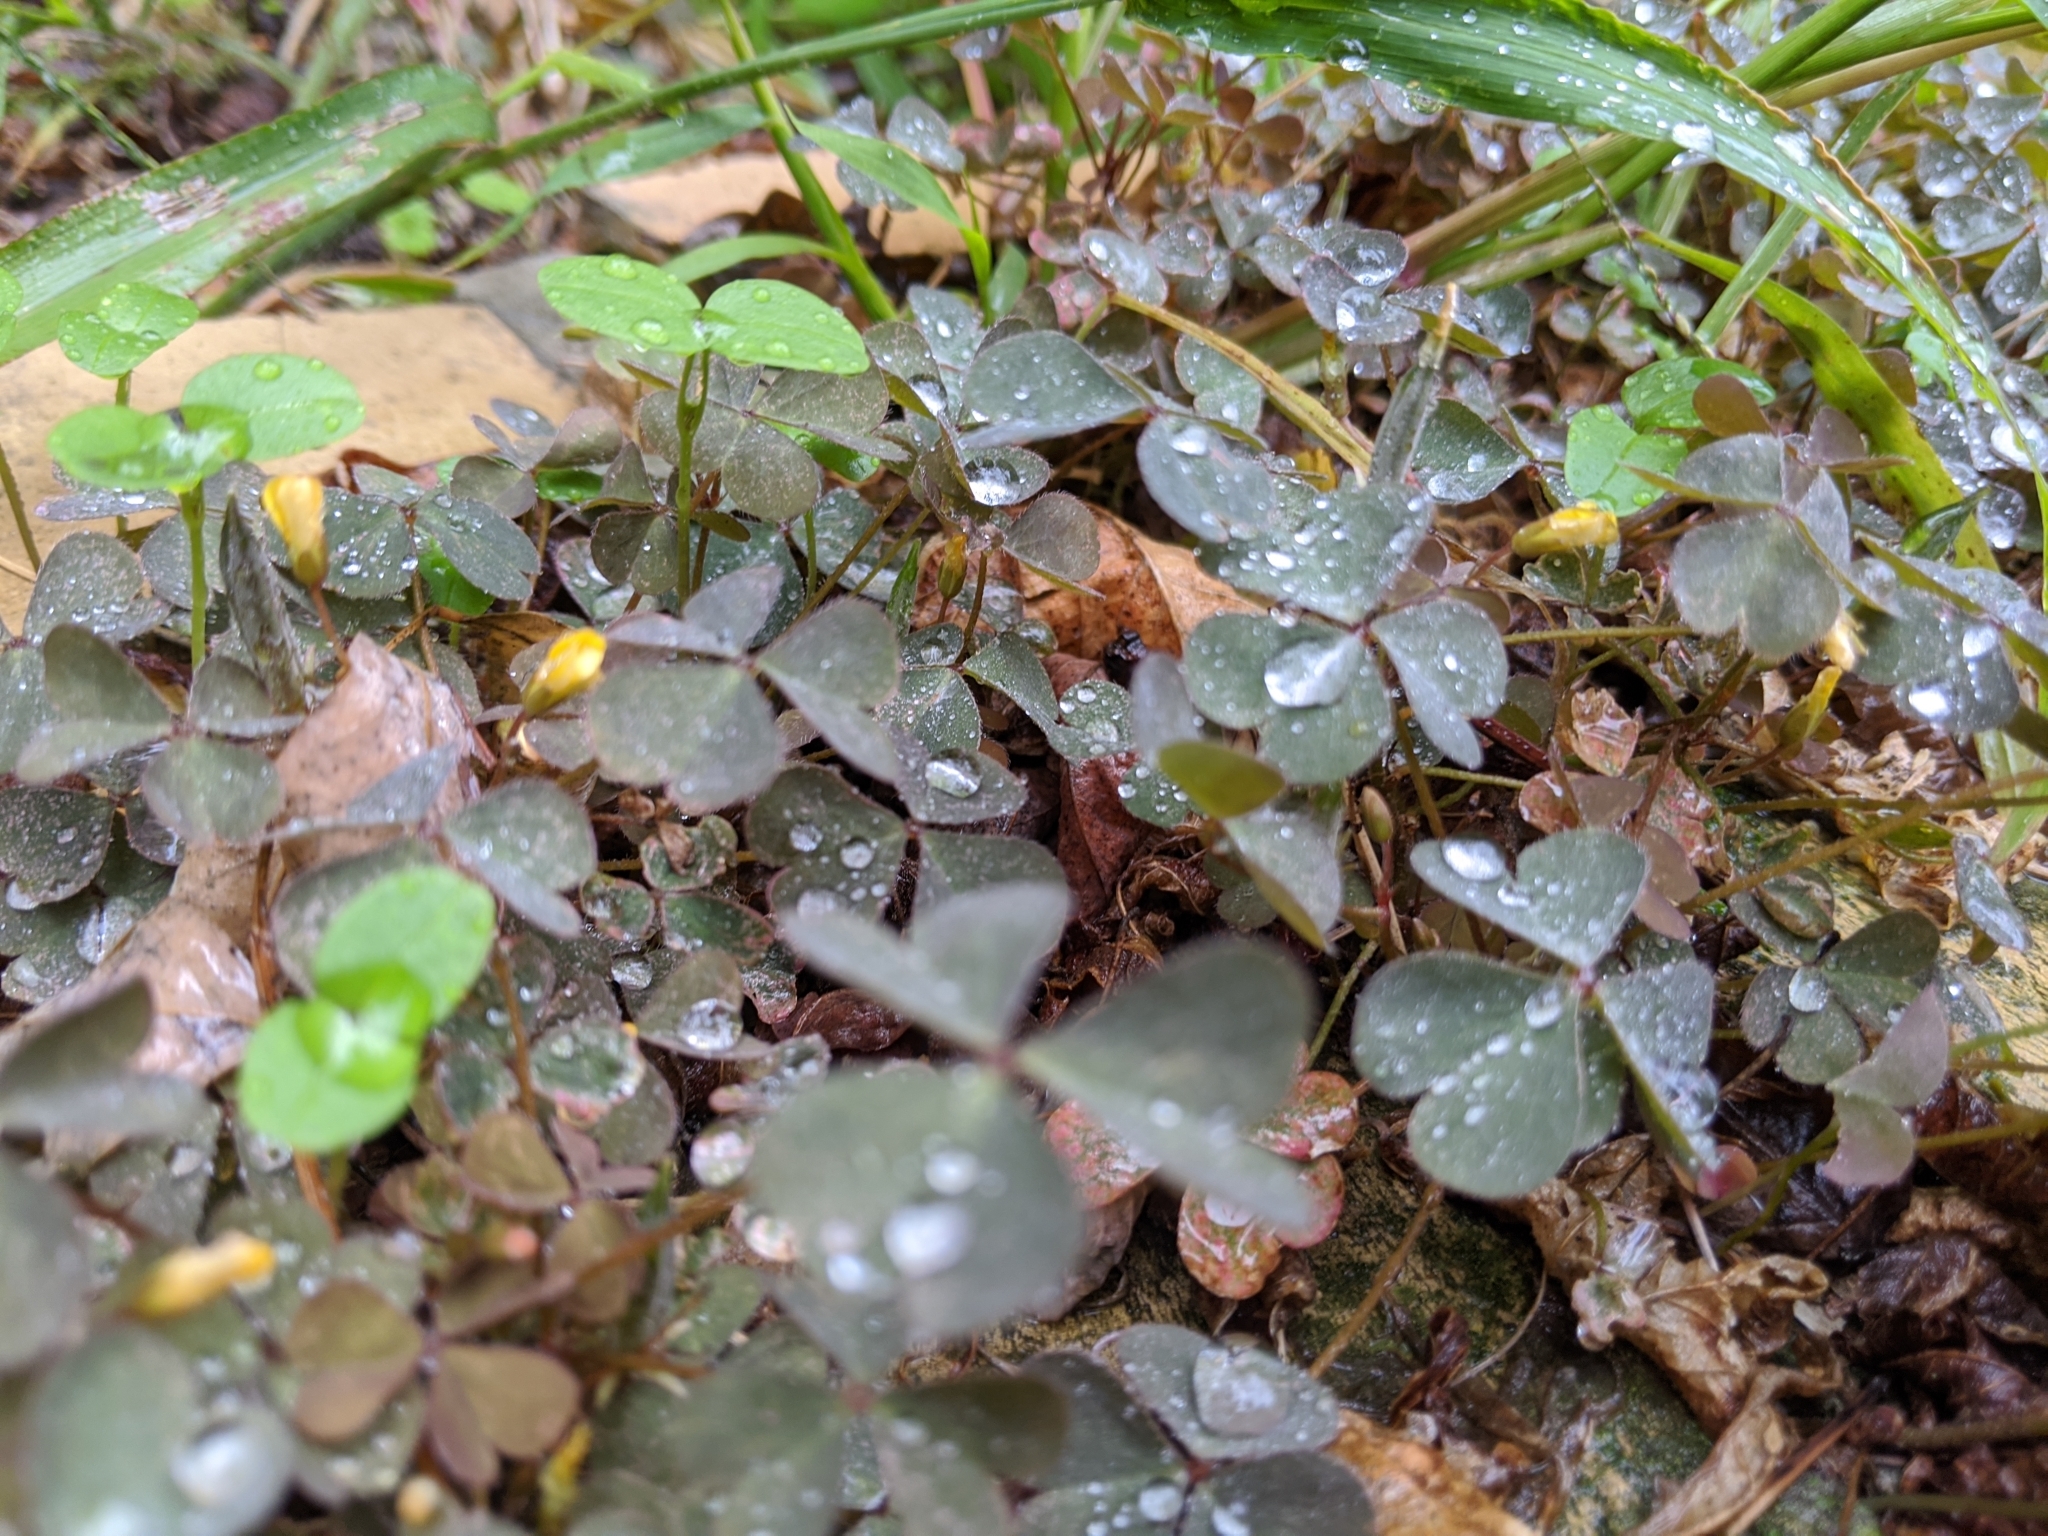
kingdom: Plantae
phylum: Tracheophyta
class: Magnoliopsida
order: Oxalidales
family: Oxalidaceae
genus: Oxalis
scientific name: Oxalis corniculata
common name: Procumbent yellow-sorrel
